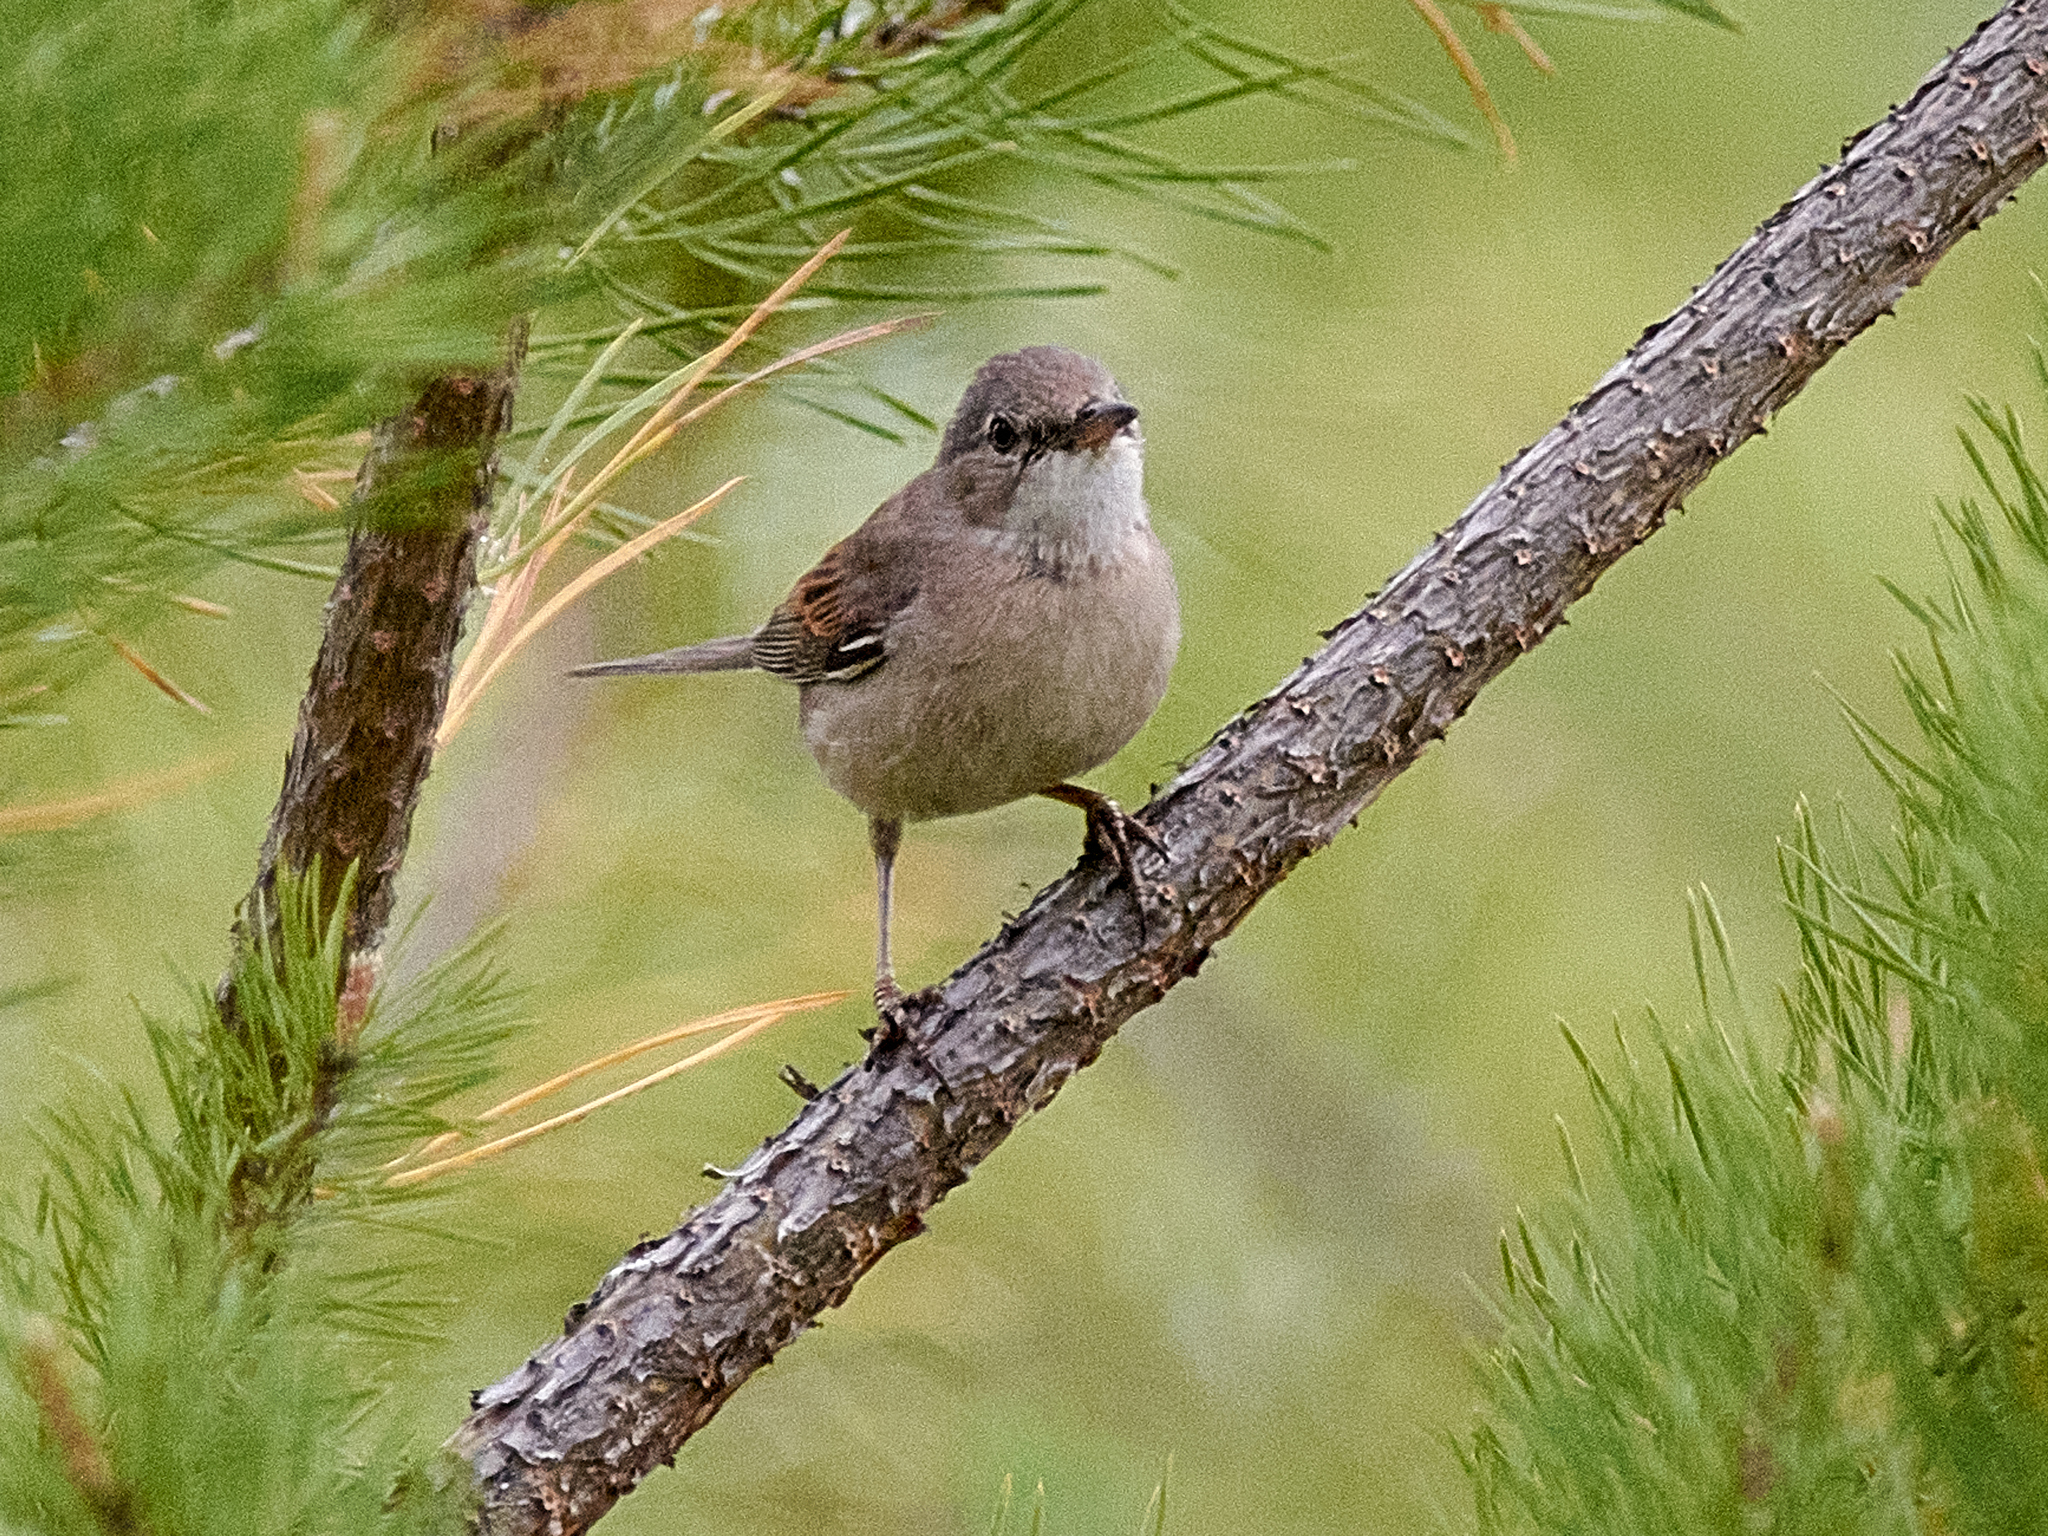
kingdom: Animalia
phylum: Chordata
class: Aves
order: Passeriformes
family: Sylviidae
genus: Sylvia
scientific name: Sylvia communis
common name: Common whitethroat
